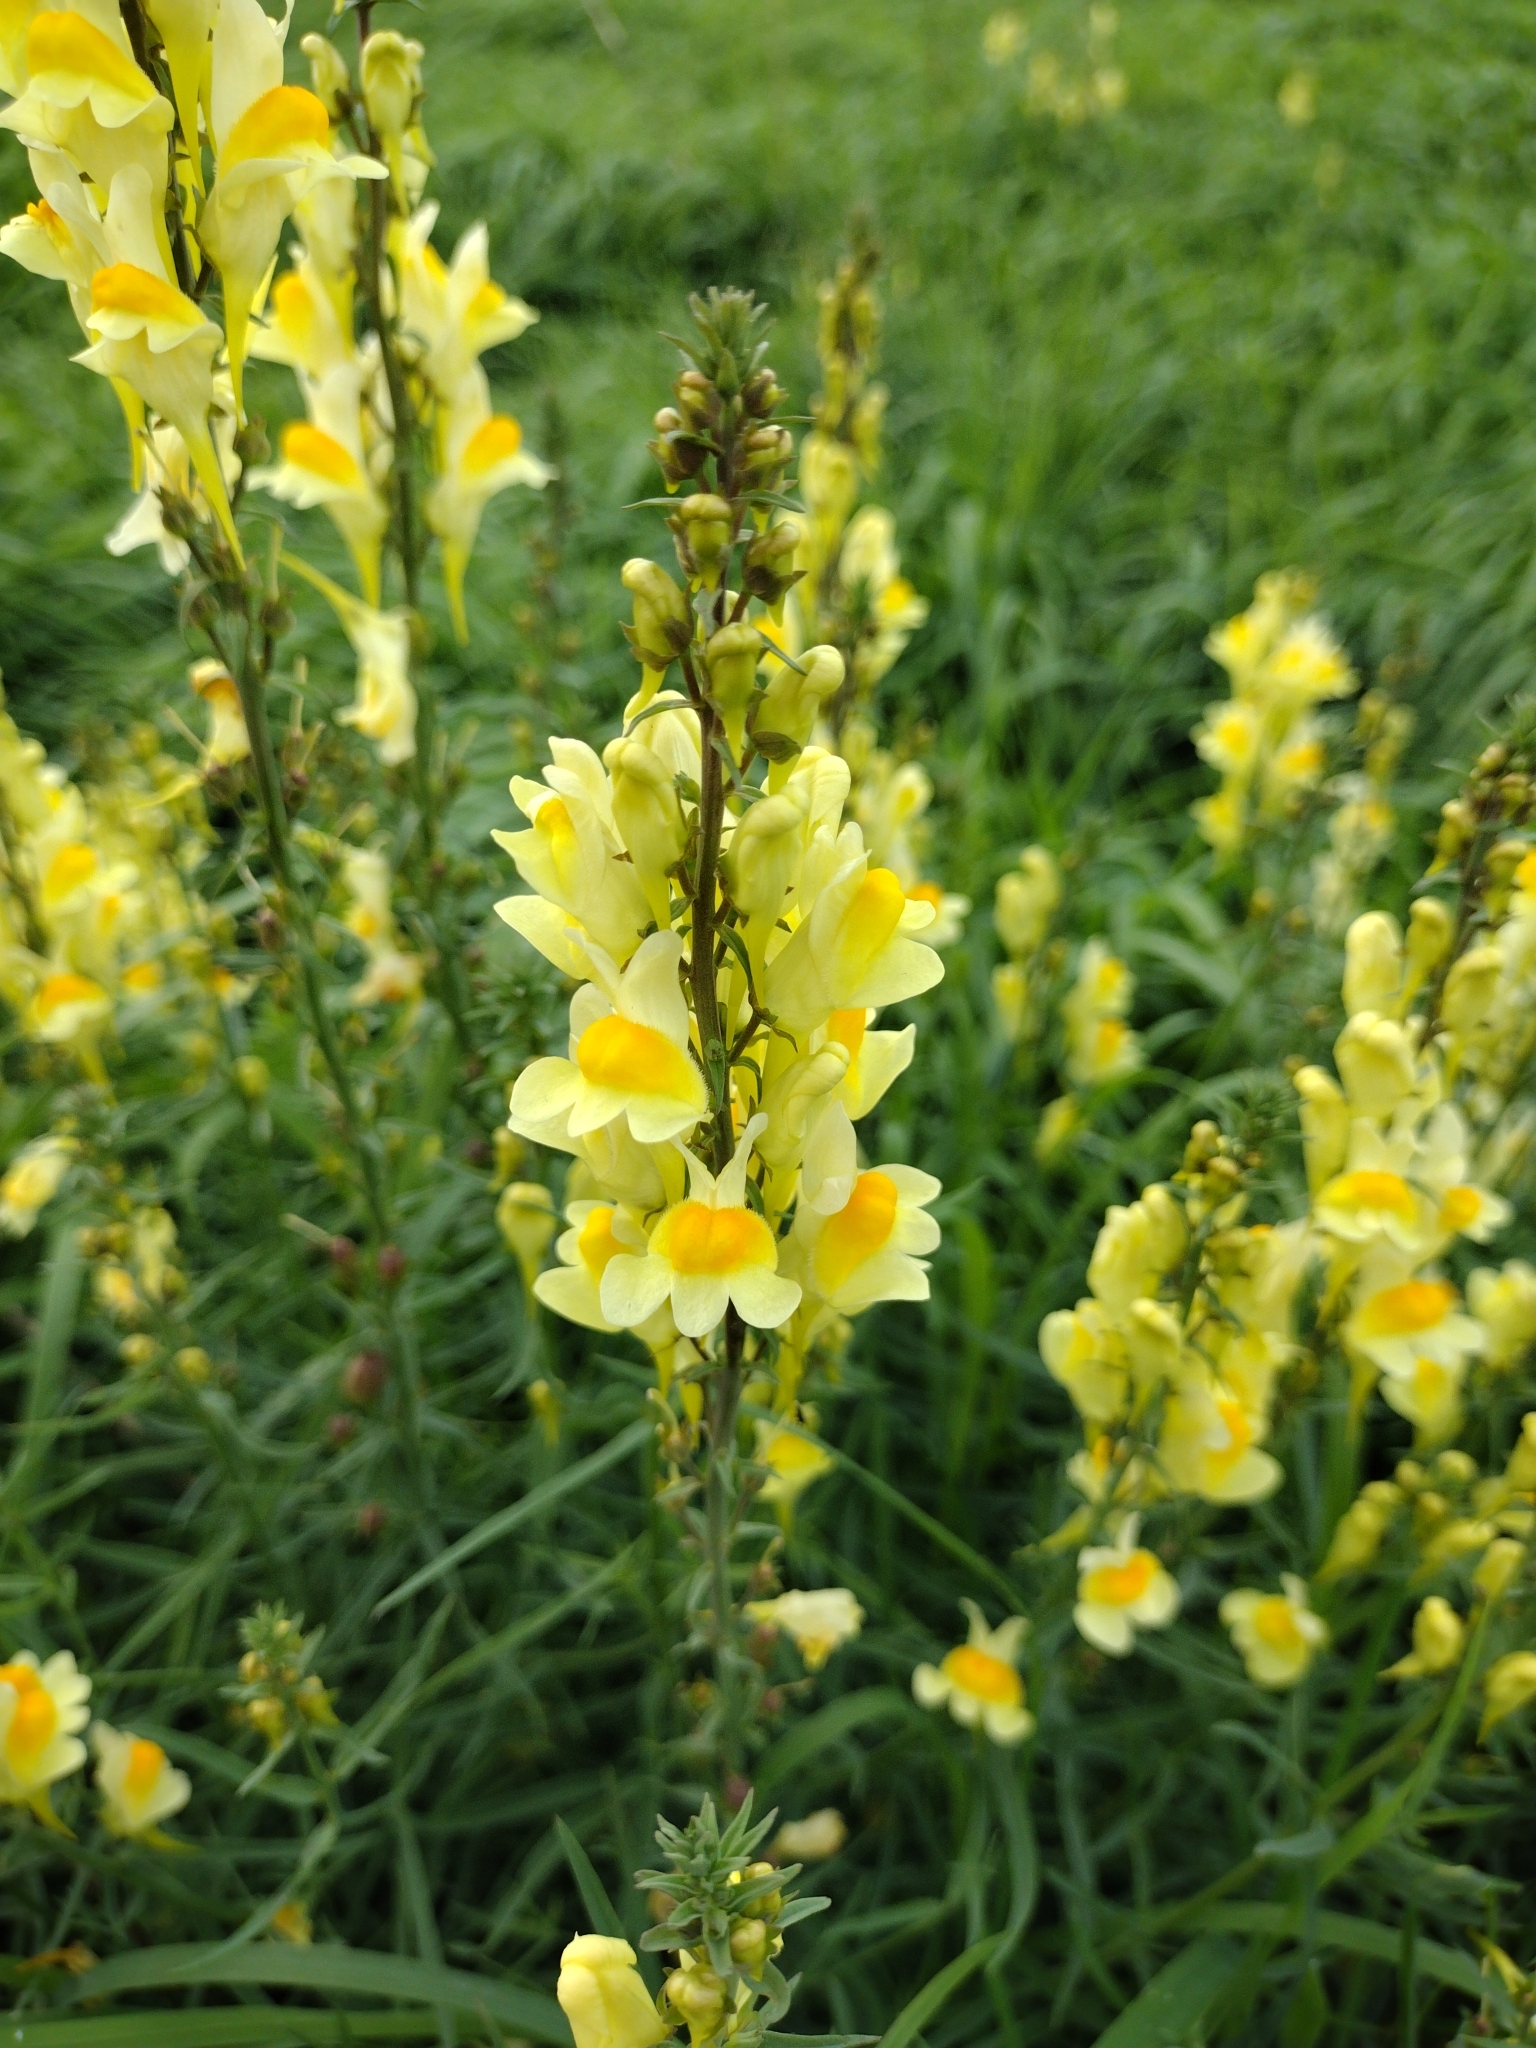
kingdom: Plantae
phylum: Tracheophyta
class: Magnoliopsida
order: Lamiales
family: Plantaginaceae
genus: Linaria
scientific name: Linaria vulgaris
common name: Butter and eggs
